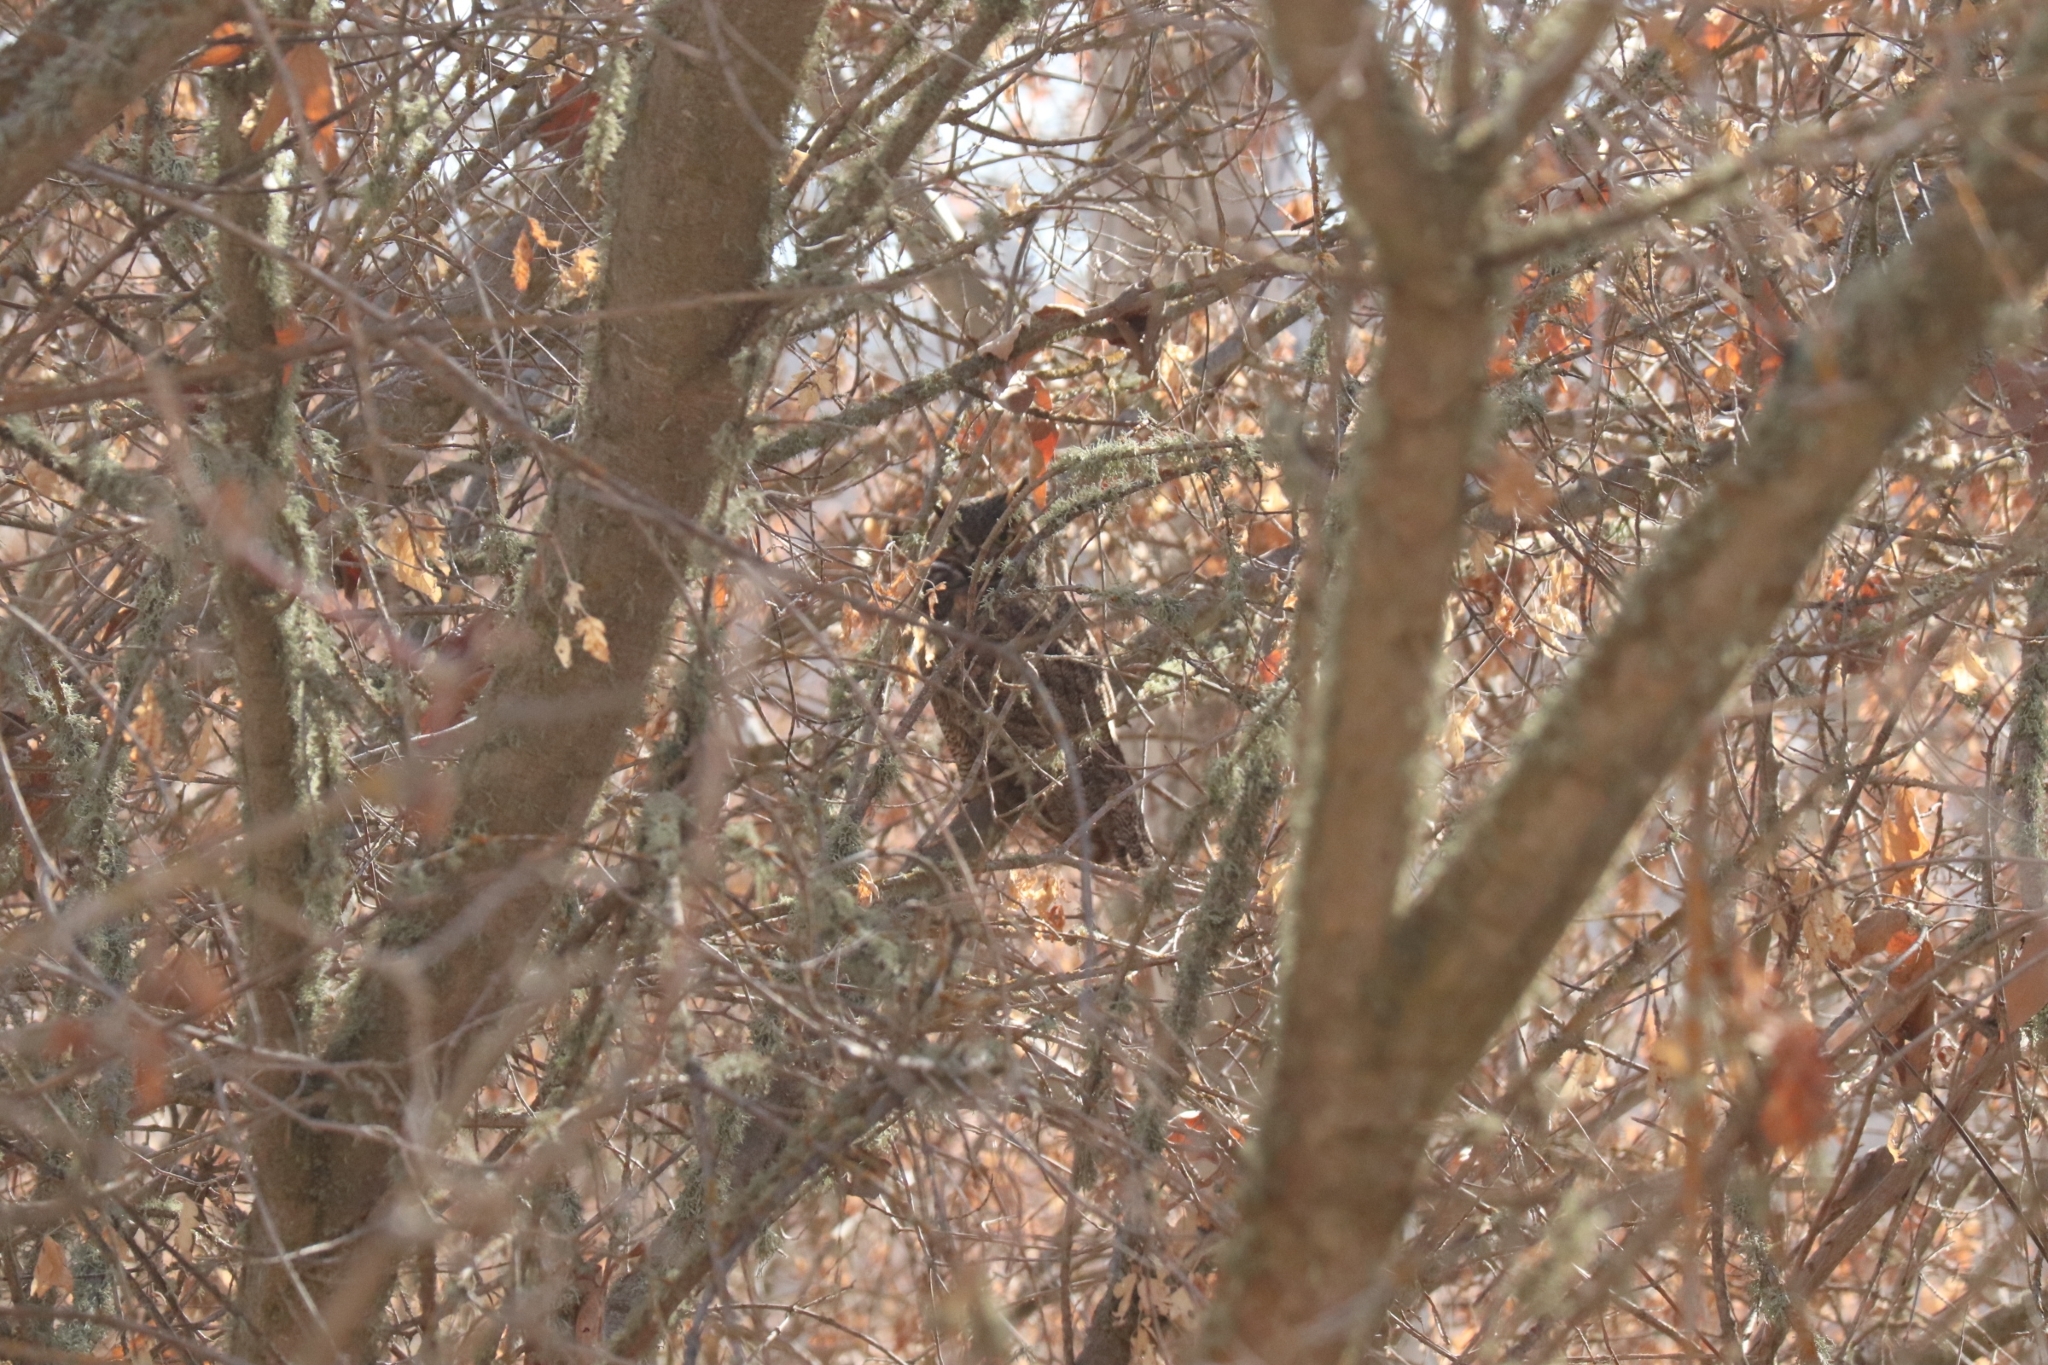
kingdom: Animalia
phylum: Chordata
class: Aves
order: Strigiformes
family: Strigidae
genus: Bubo
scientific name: Bubo virginianus
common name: Great horned owl
